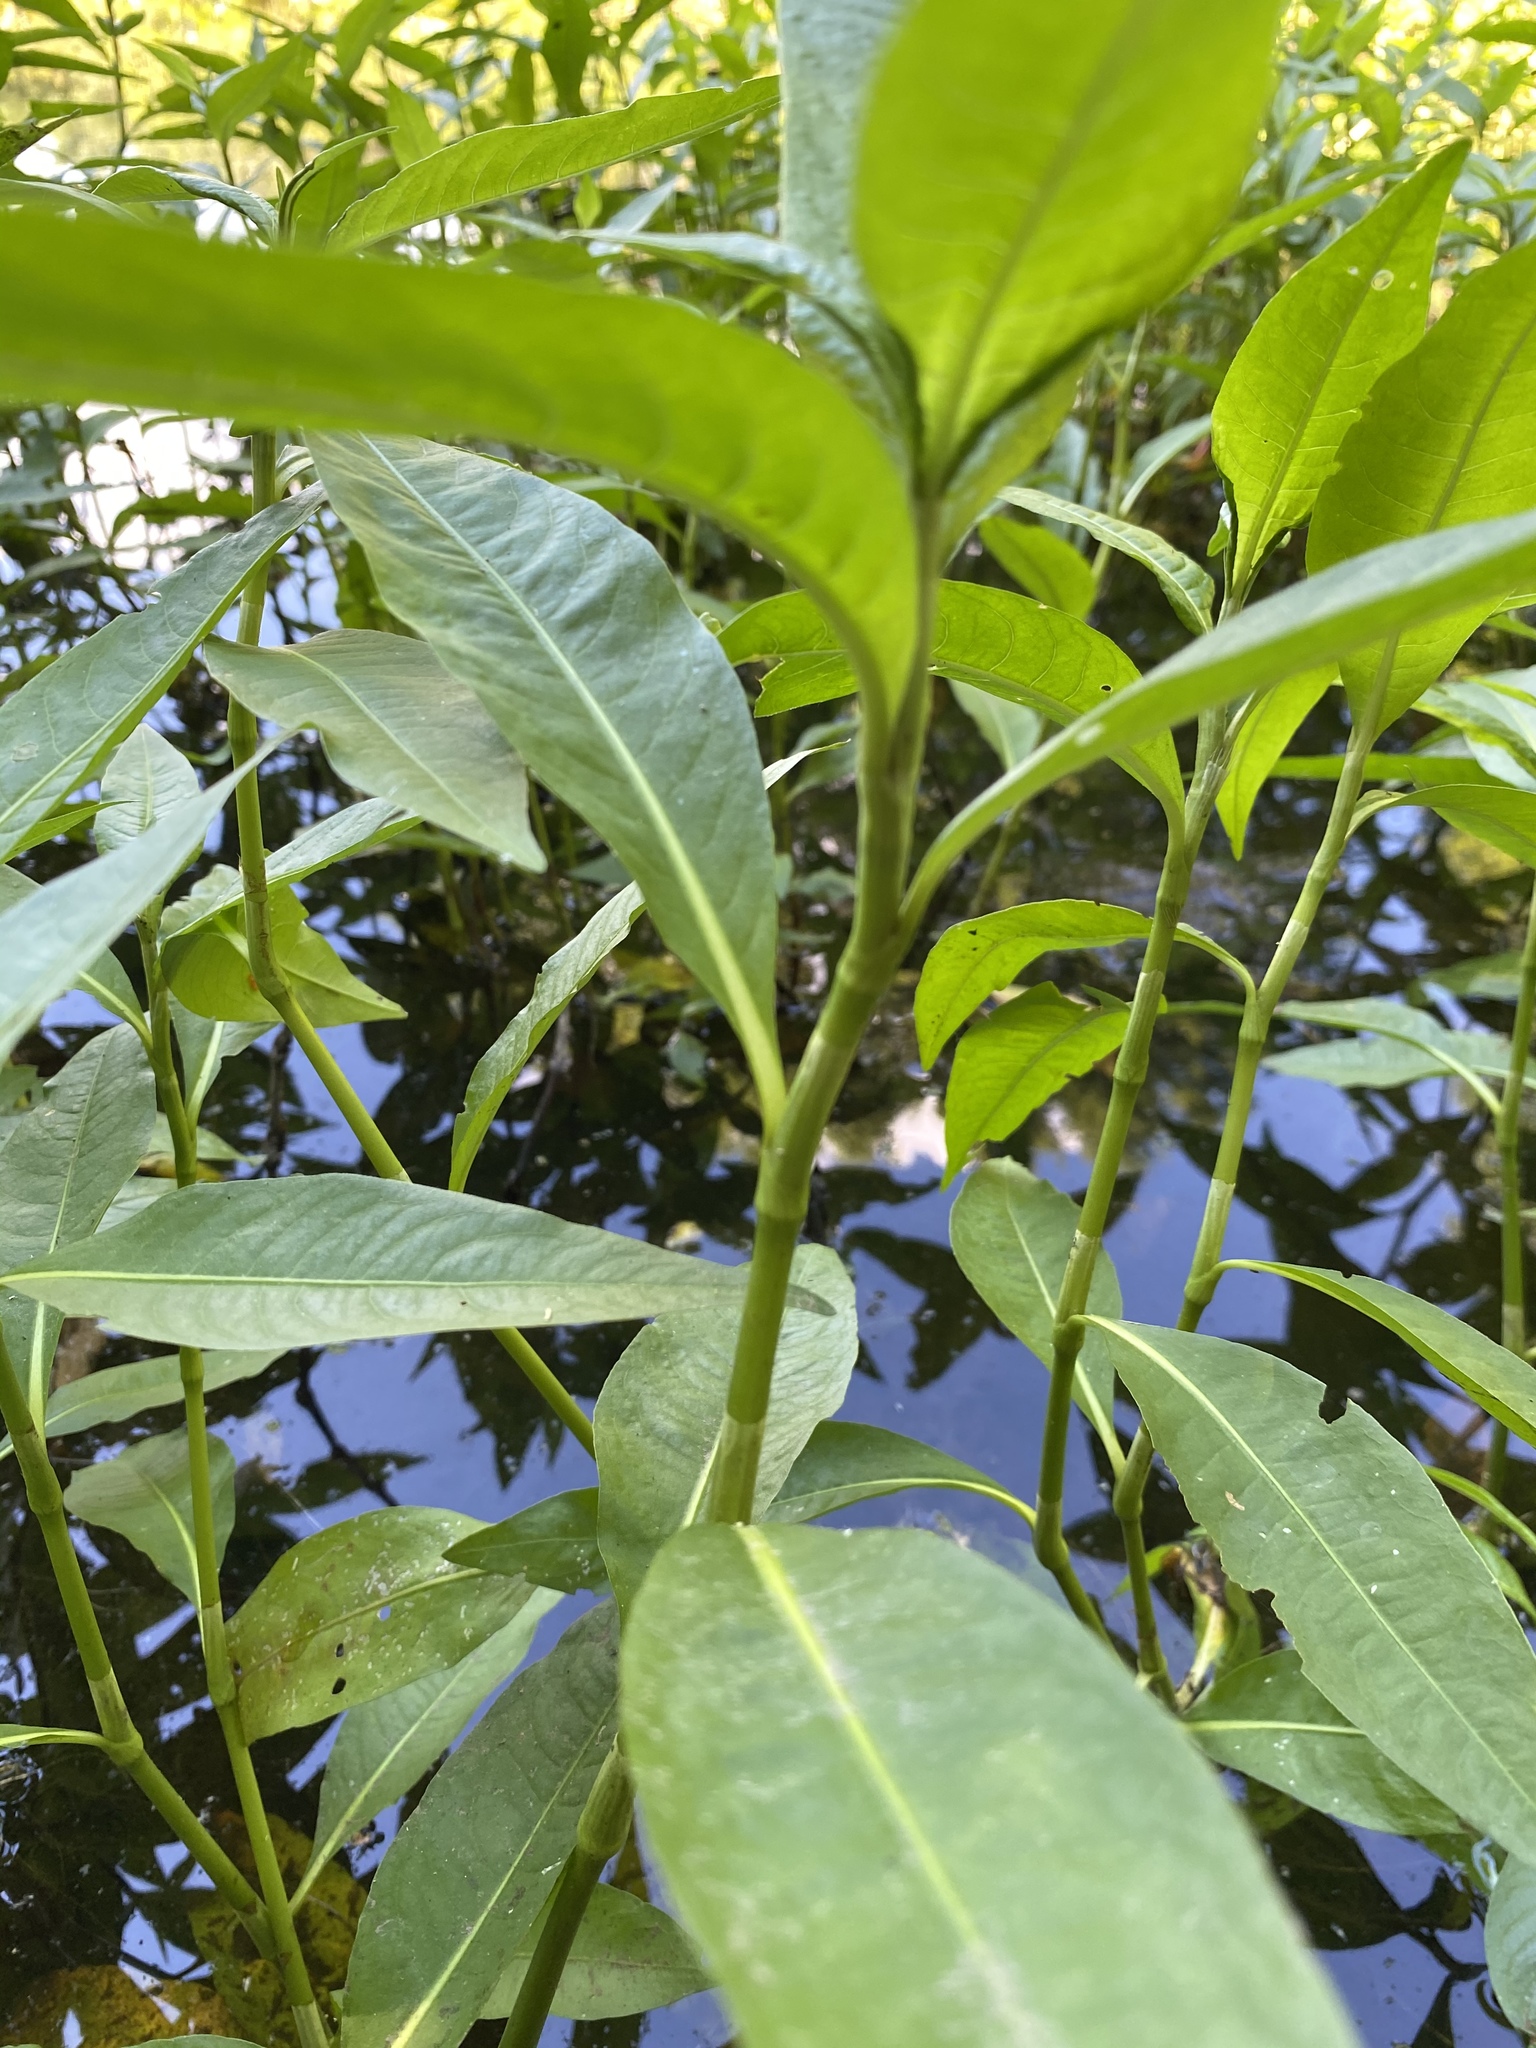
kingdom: Plantae
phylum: Tracheophyta
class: Magnoliopsida
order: Caryophyllales
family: Polygonaceae
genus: Persicaria
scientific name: Persicaria amphibia
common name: Amphibious bistort
